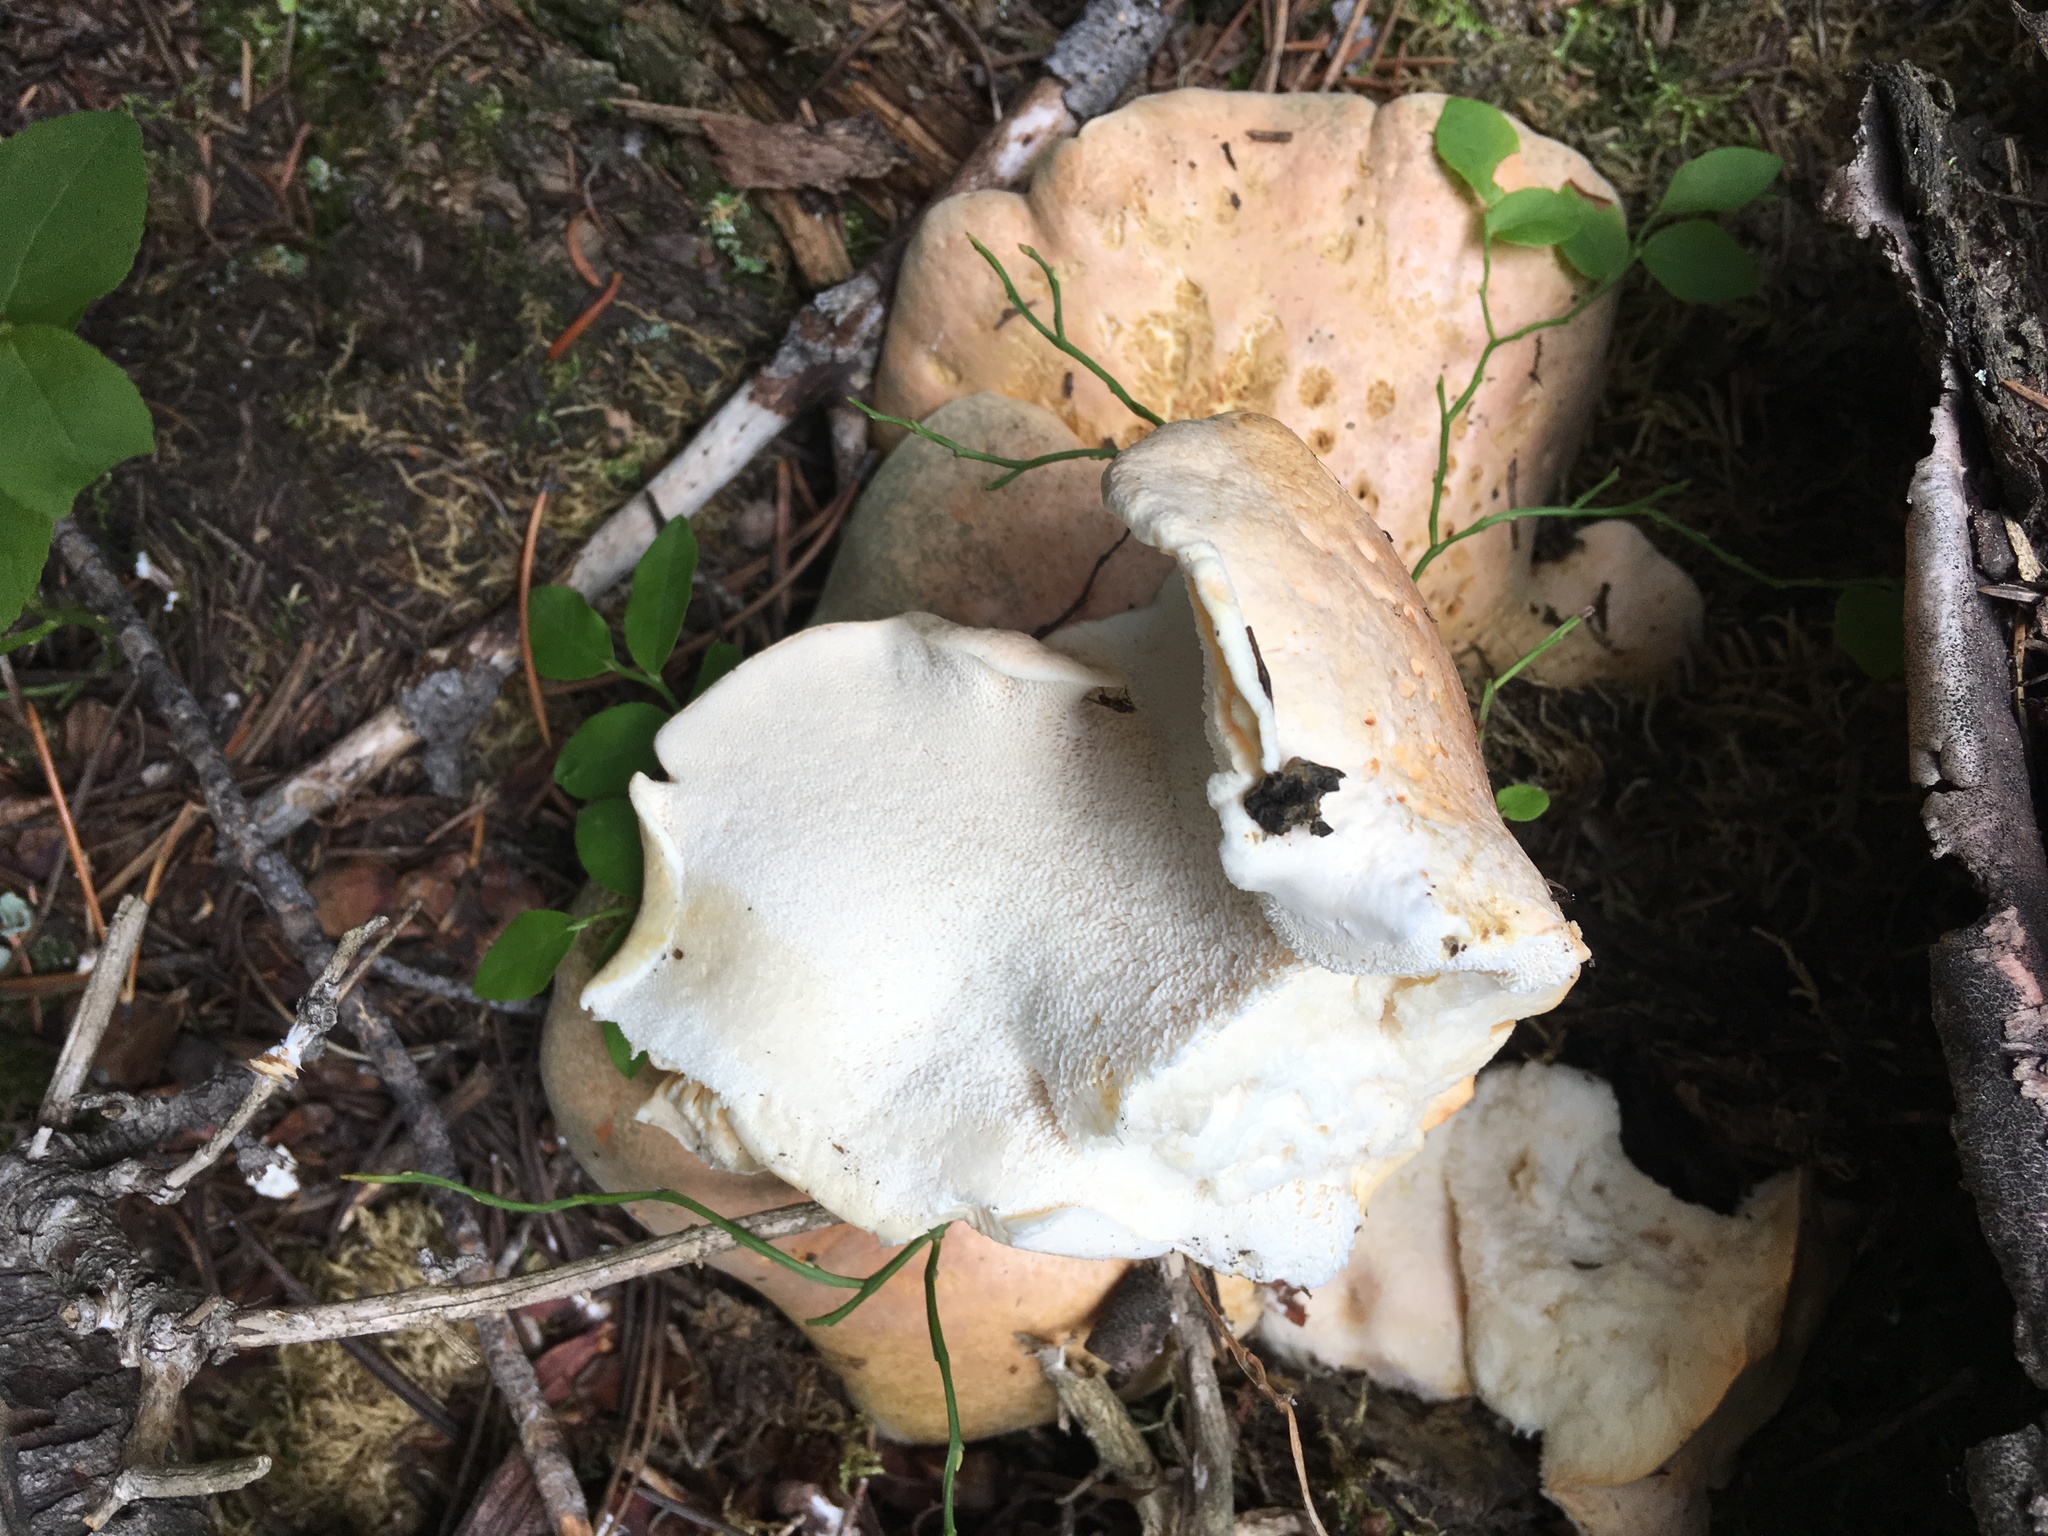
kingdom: Fungi
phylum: Basidiomycota
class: Agaricomycetes
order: Russulales
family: Albatrellaceae
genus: Albatrellopsis
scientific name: Albatrellopsis confluens
